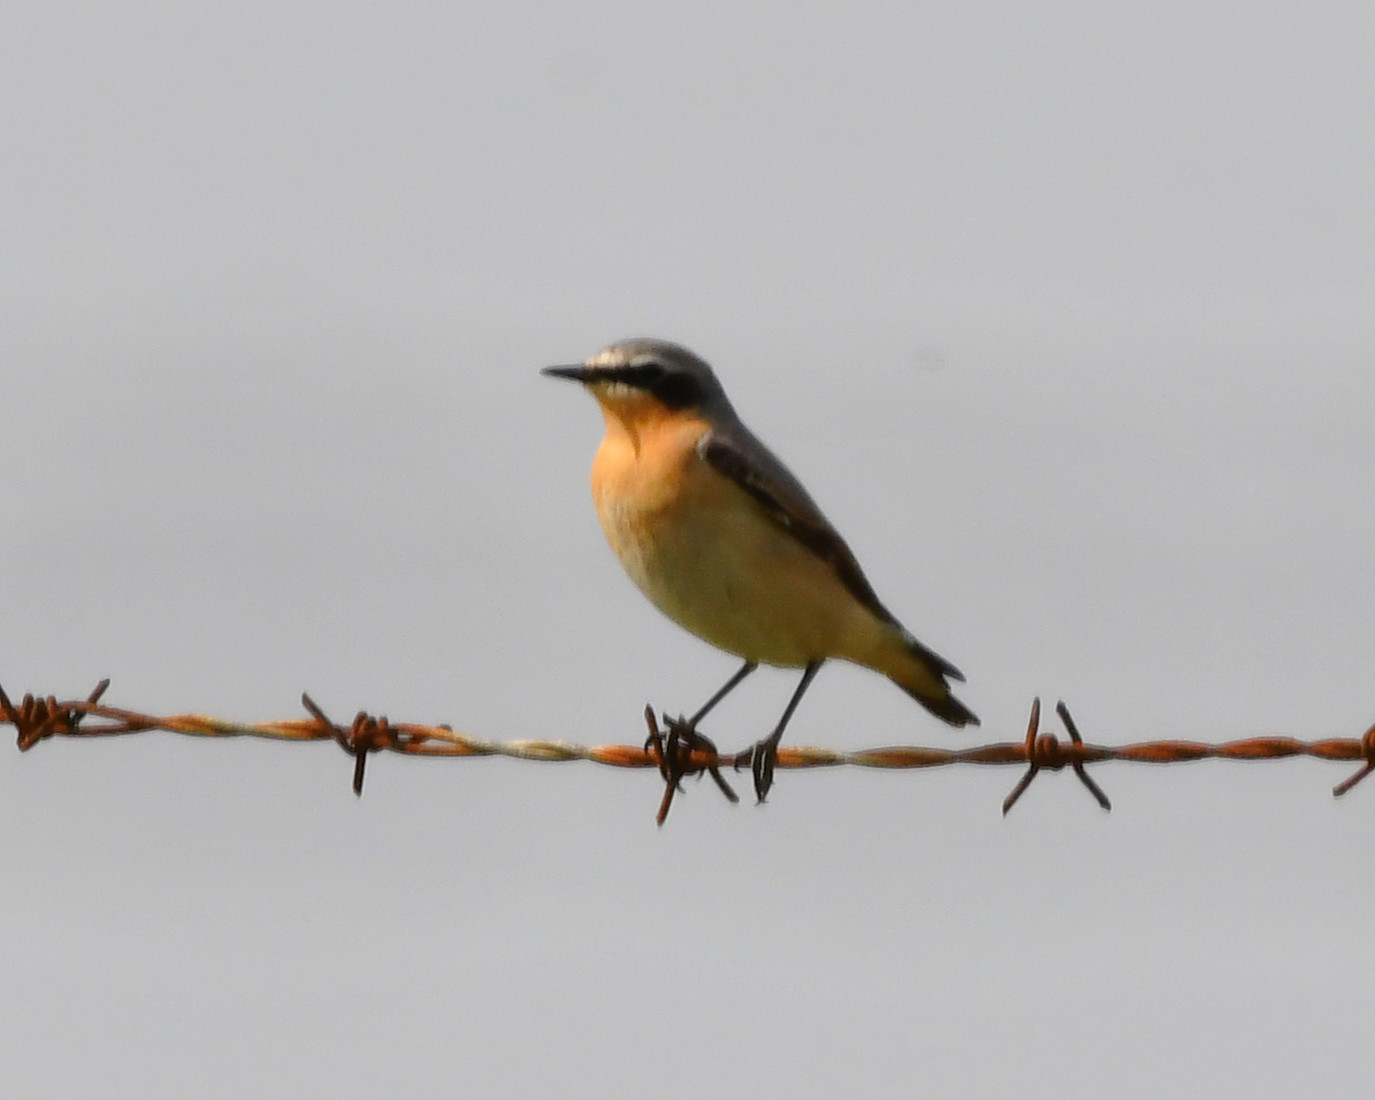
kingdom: Animalia
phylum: Chordata
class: Aves
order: Passeriformes
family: Muscicapidae
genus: Oenanthe
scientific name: Oenanthe oenanthe
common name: Northern wheatear
